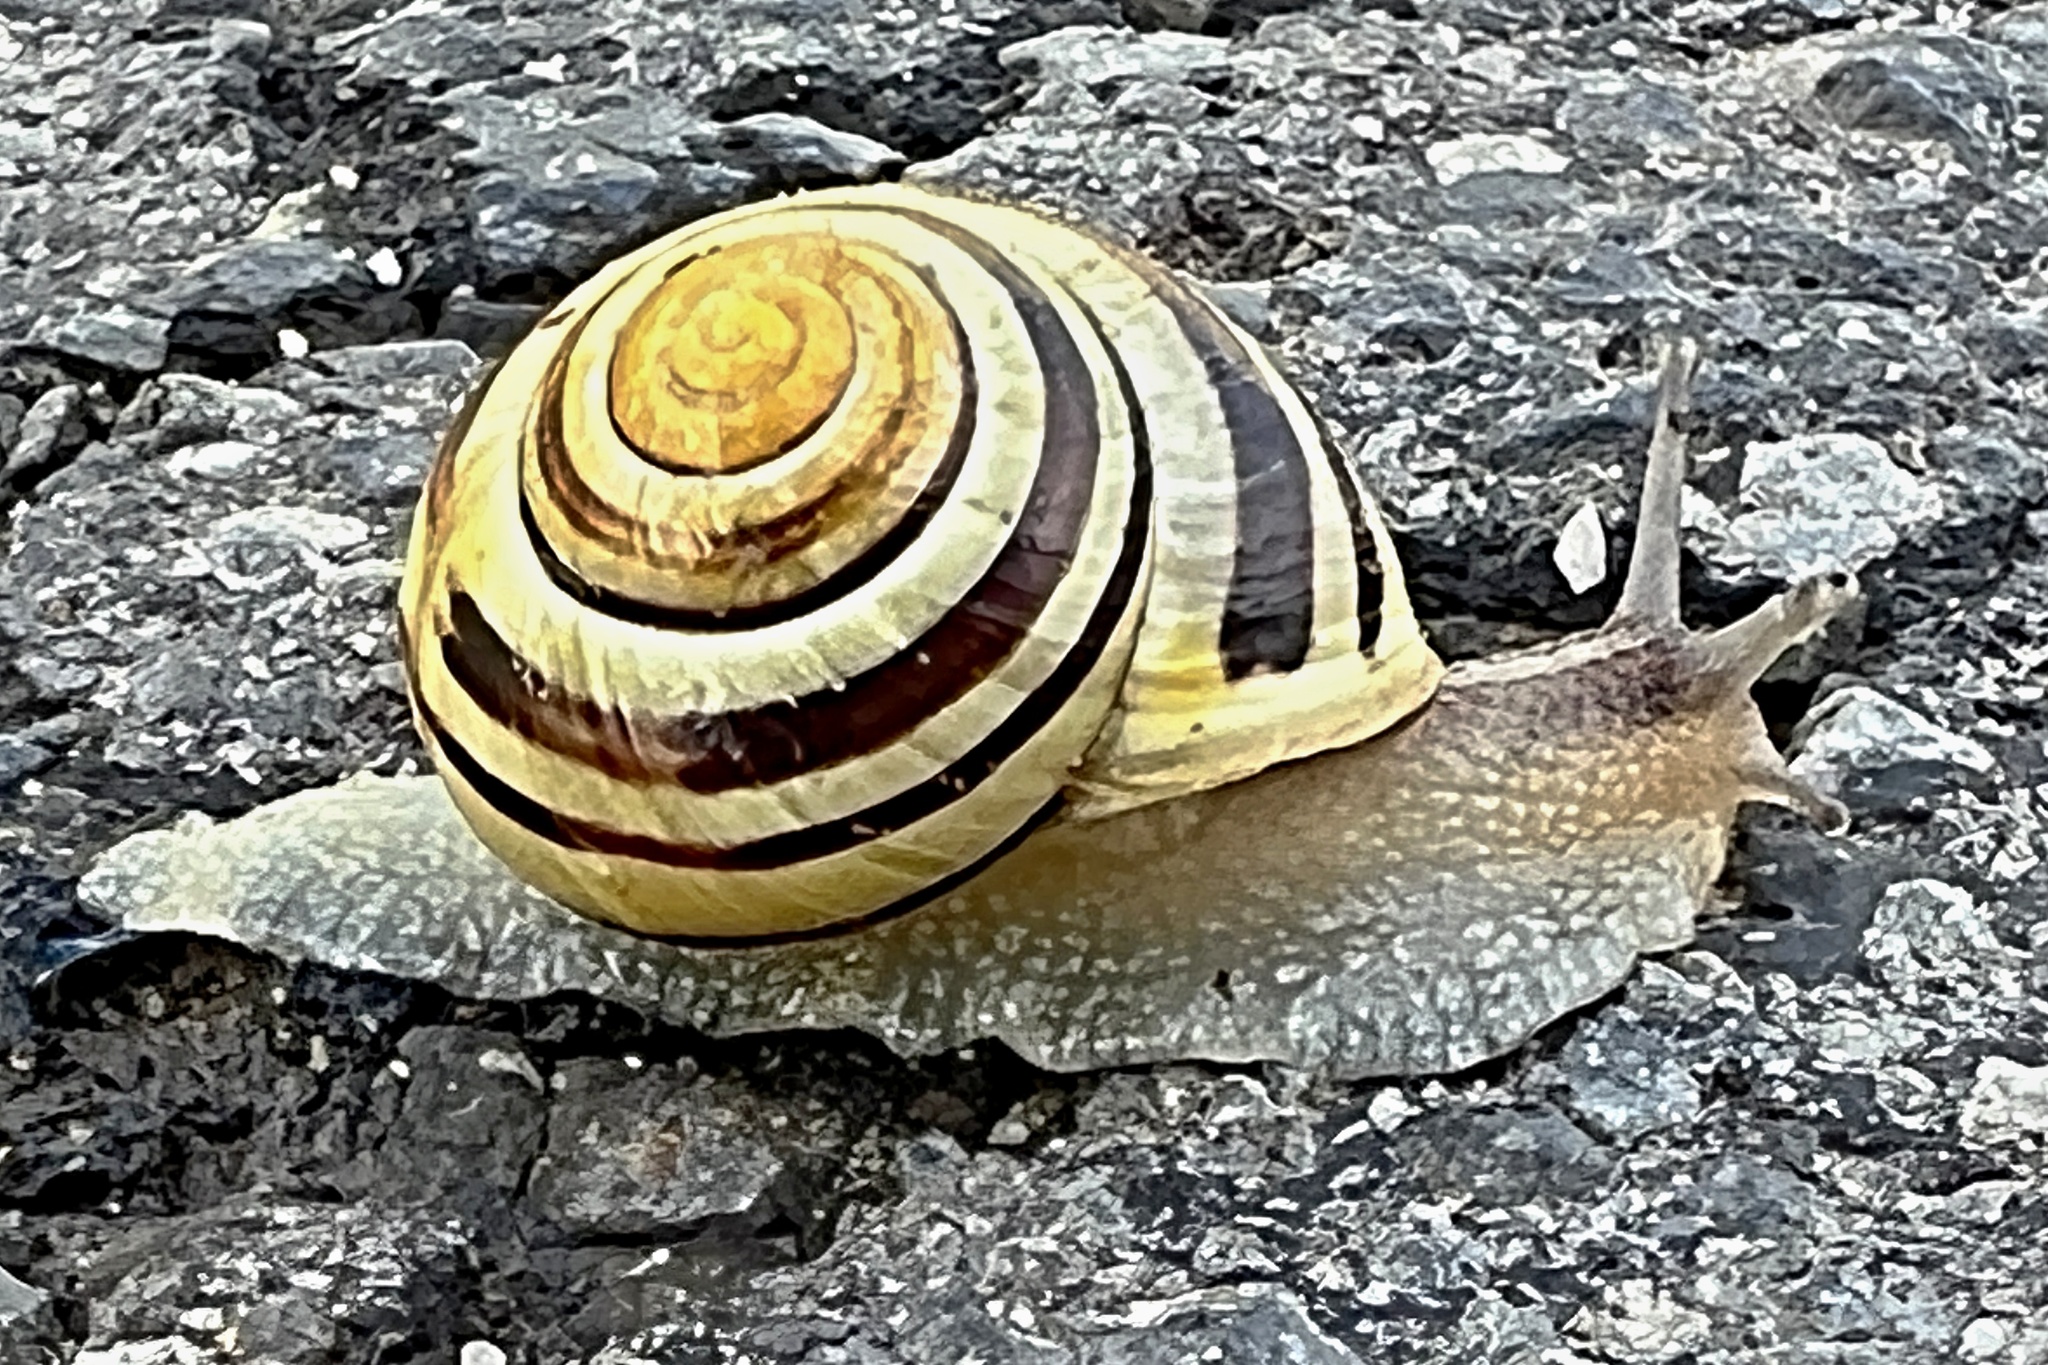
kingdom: Animalia
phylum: Mollusca
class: Gastropoda
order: Stylommatophora
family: Helicidae
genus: Cepaea
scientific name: Cepaea hortensis
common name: White-lip gardensnail
